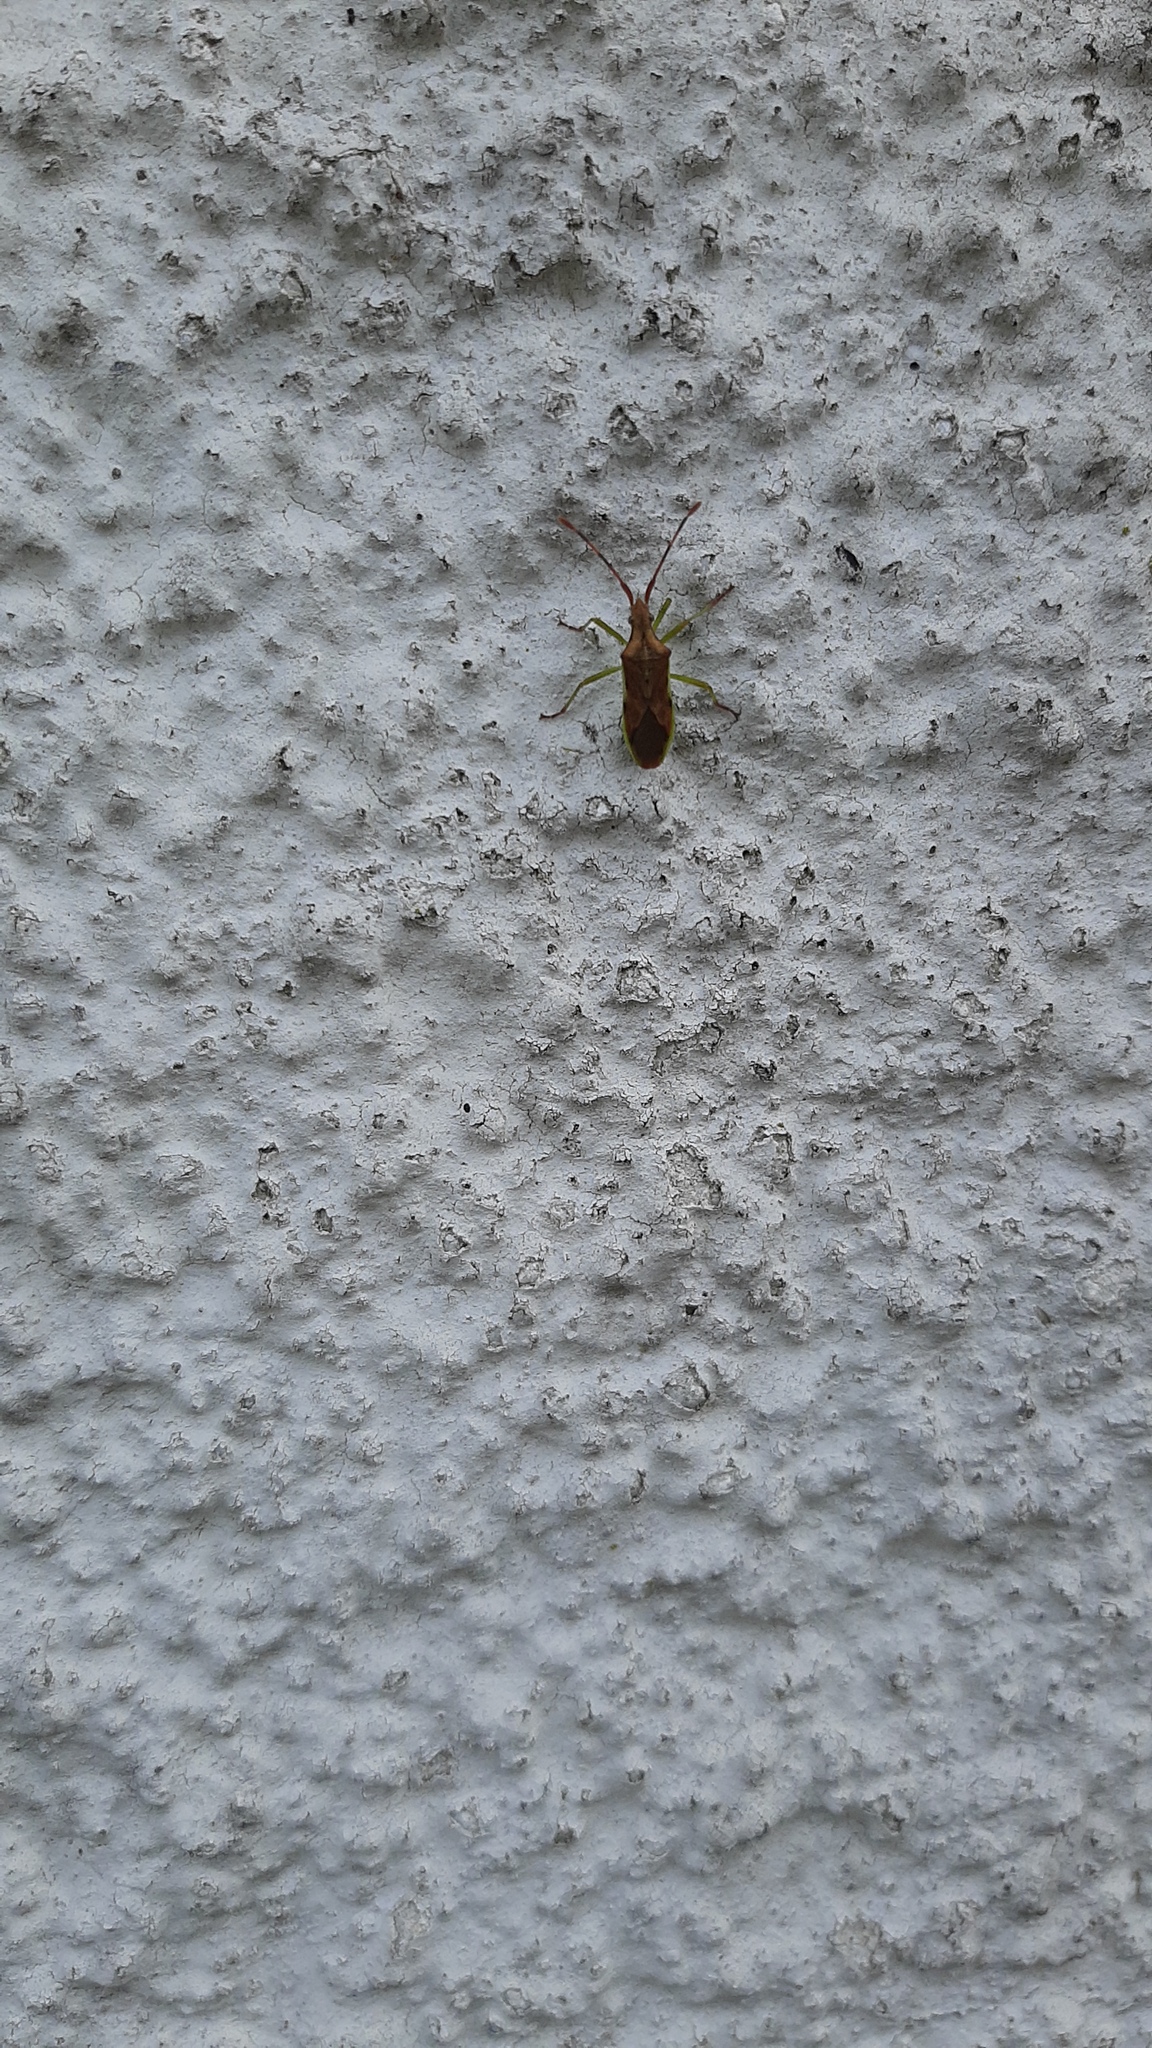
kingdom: Animalia
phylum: Arthropoda
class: Insecta
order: Hemiptera
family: Coreidae
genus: Gonocerus
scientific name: Gonocerus juniperi
